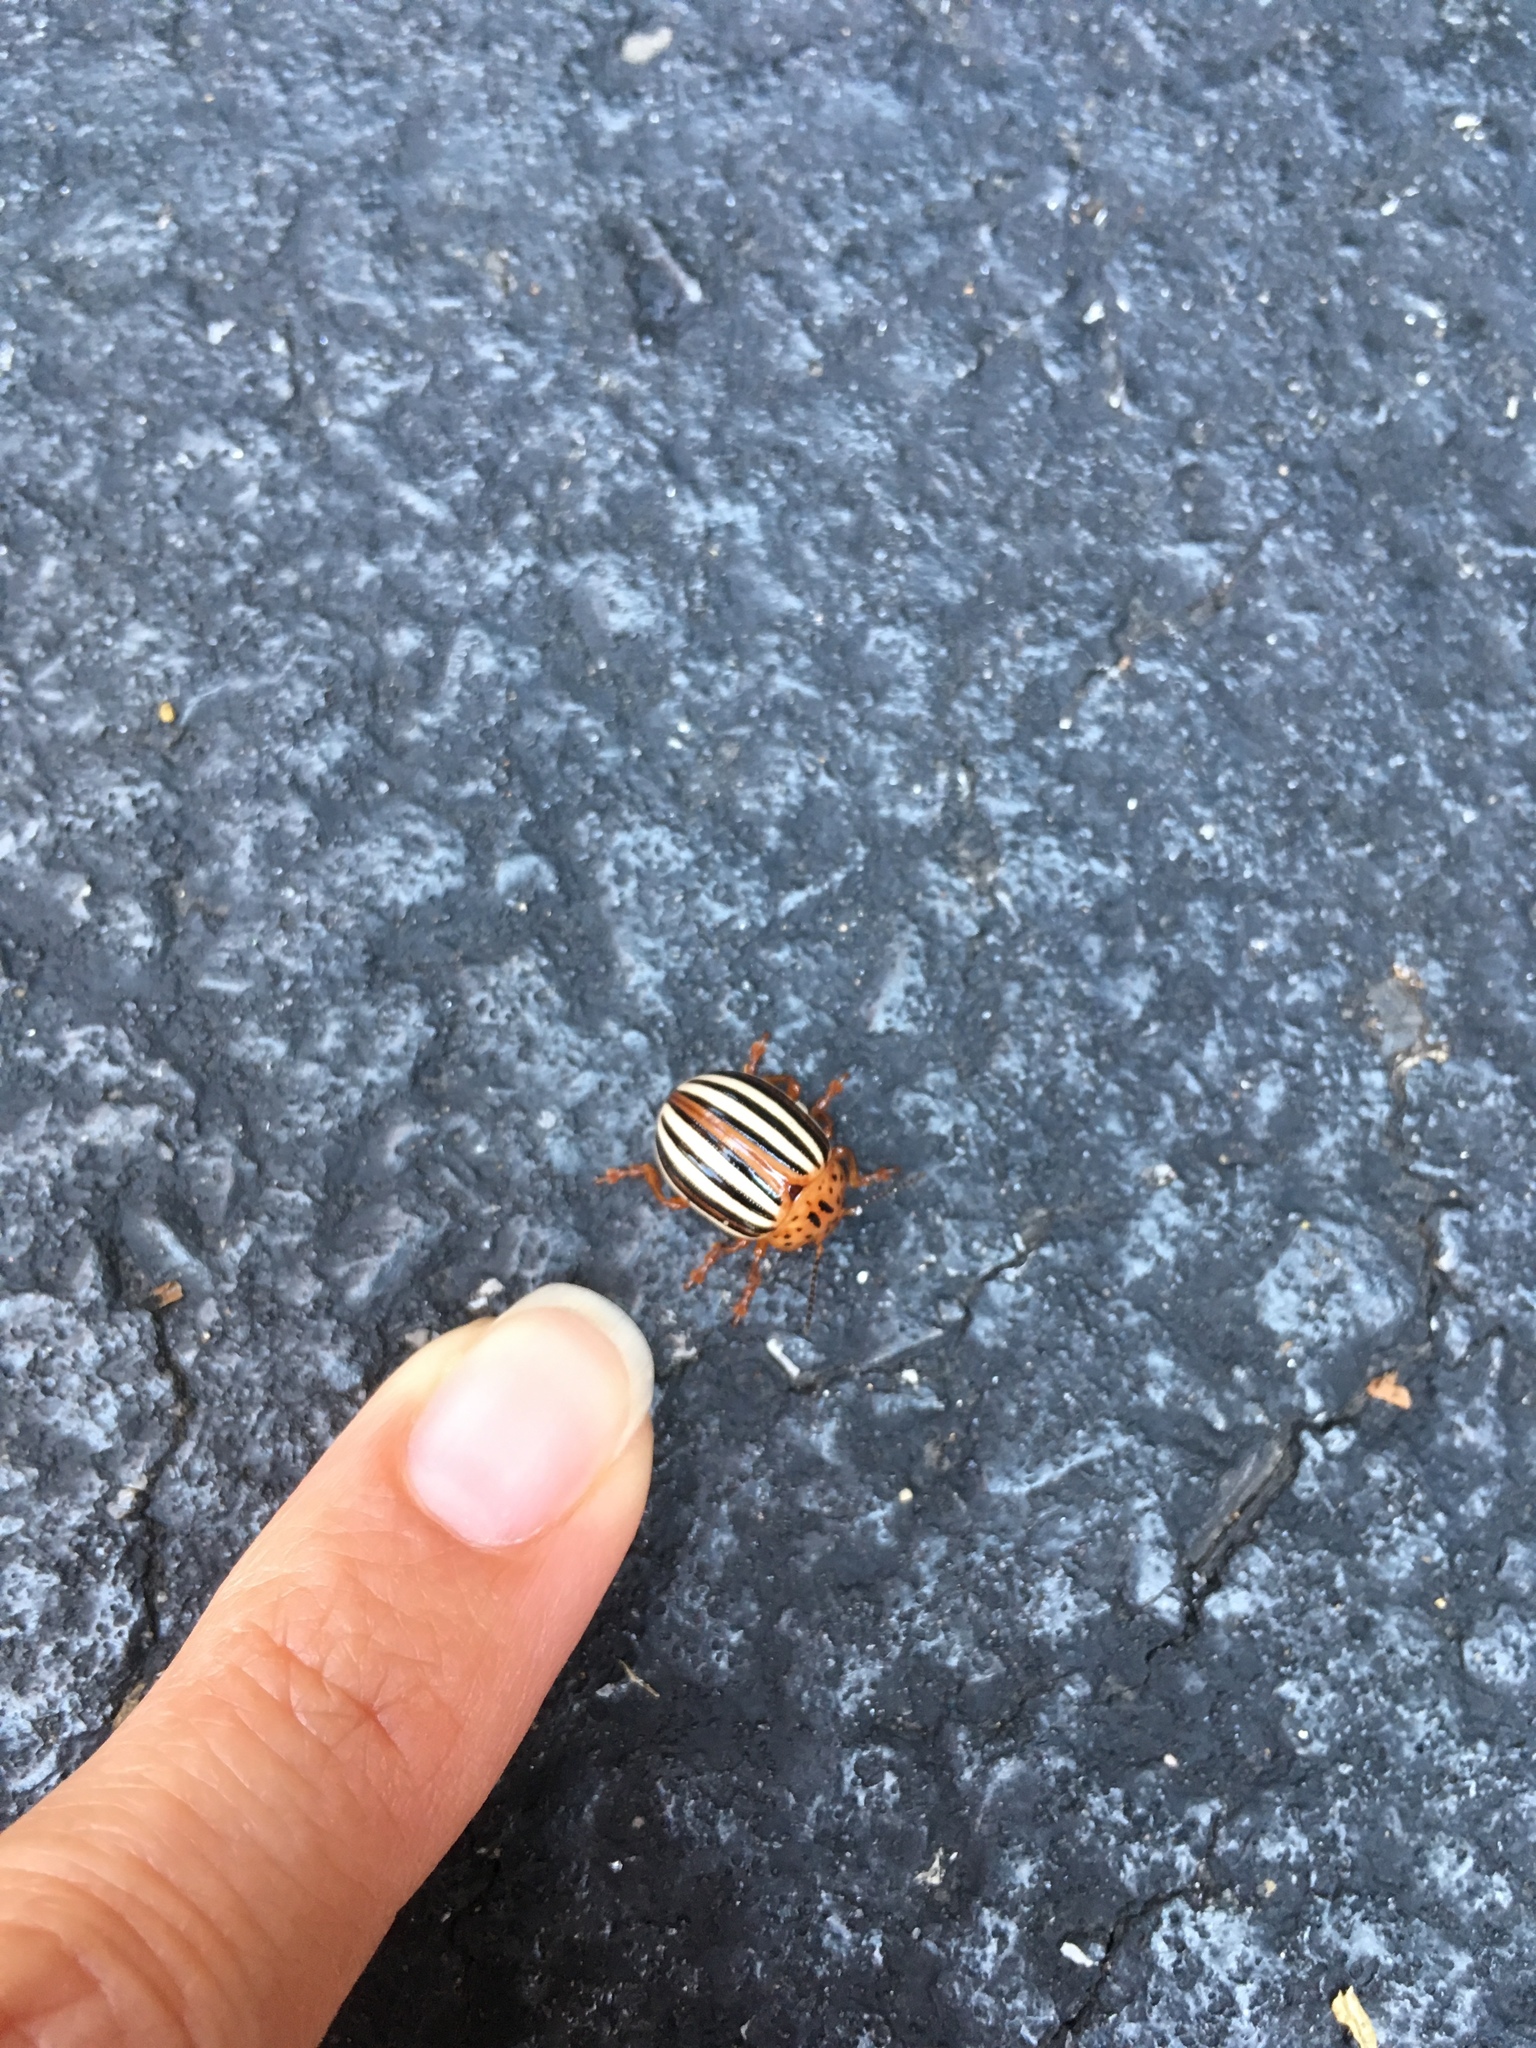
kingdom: Animalia
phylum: Arthropoda
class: Insecta
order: Coleoptera
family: Chrysomelidae
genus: Leptinotarsa
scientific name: Leptinotarsa juncta
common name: False potato beetle
